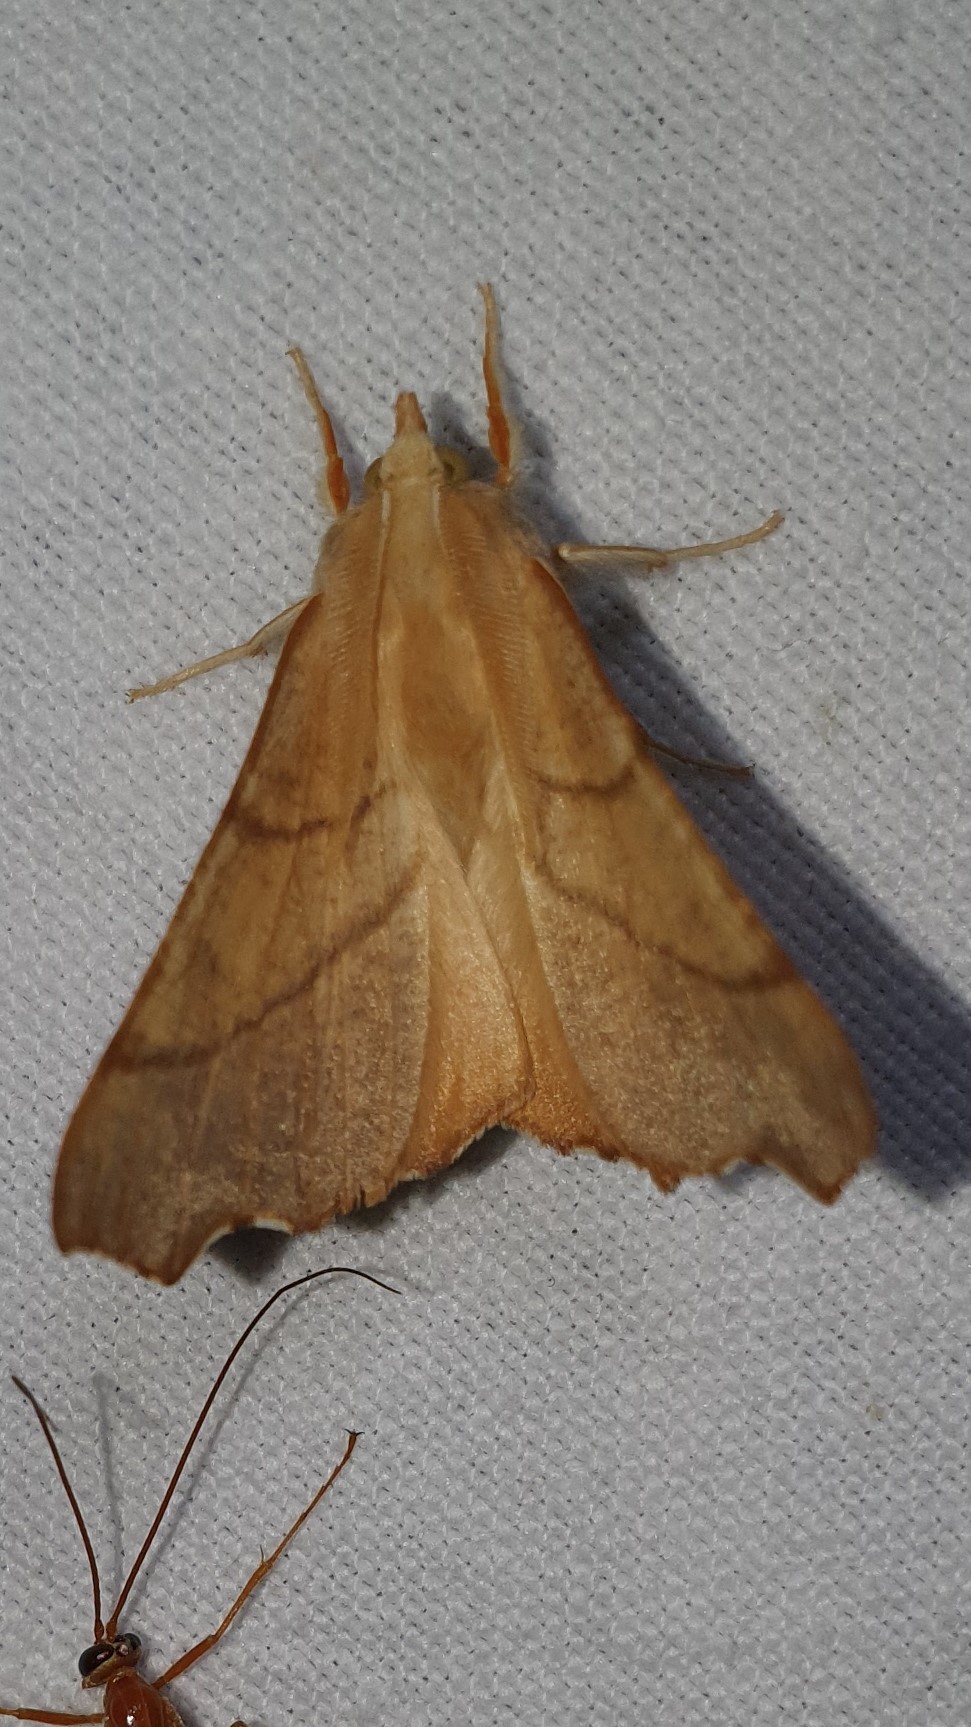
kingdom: Animalia
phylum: Arthropoda
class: Insecta
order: Lepidoptera
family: Geometridae
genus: Ennomos
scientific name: Ennomos fuscantaria
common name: Dusky thorn
